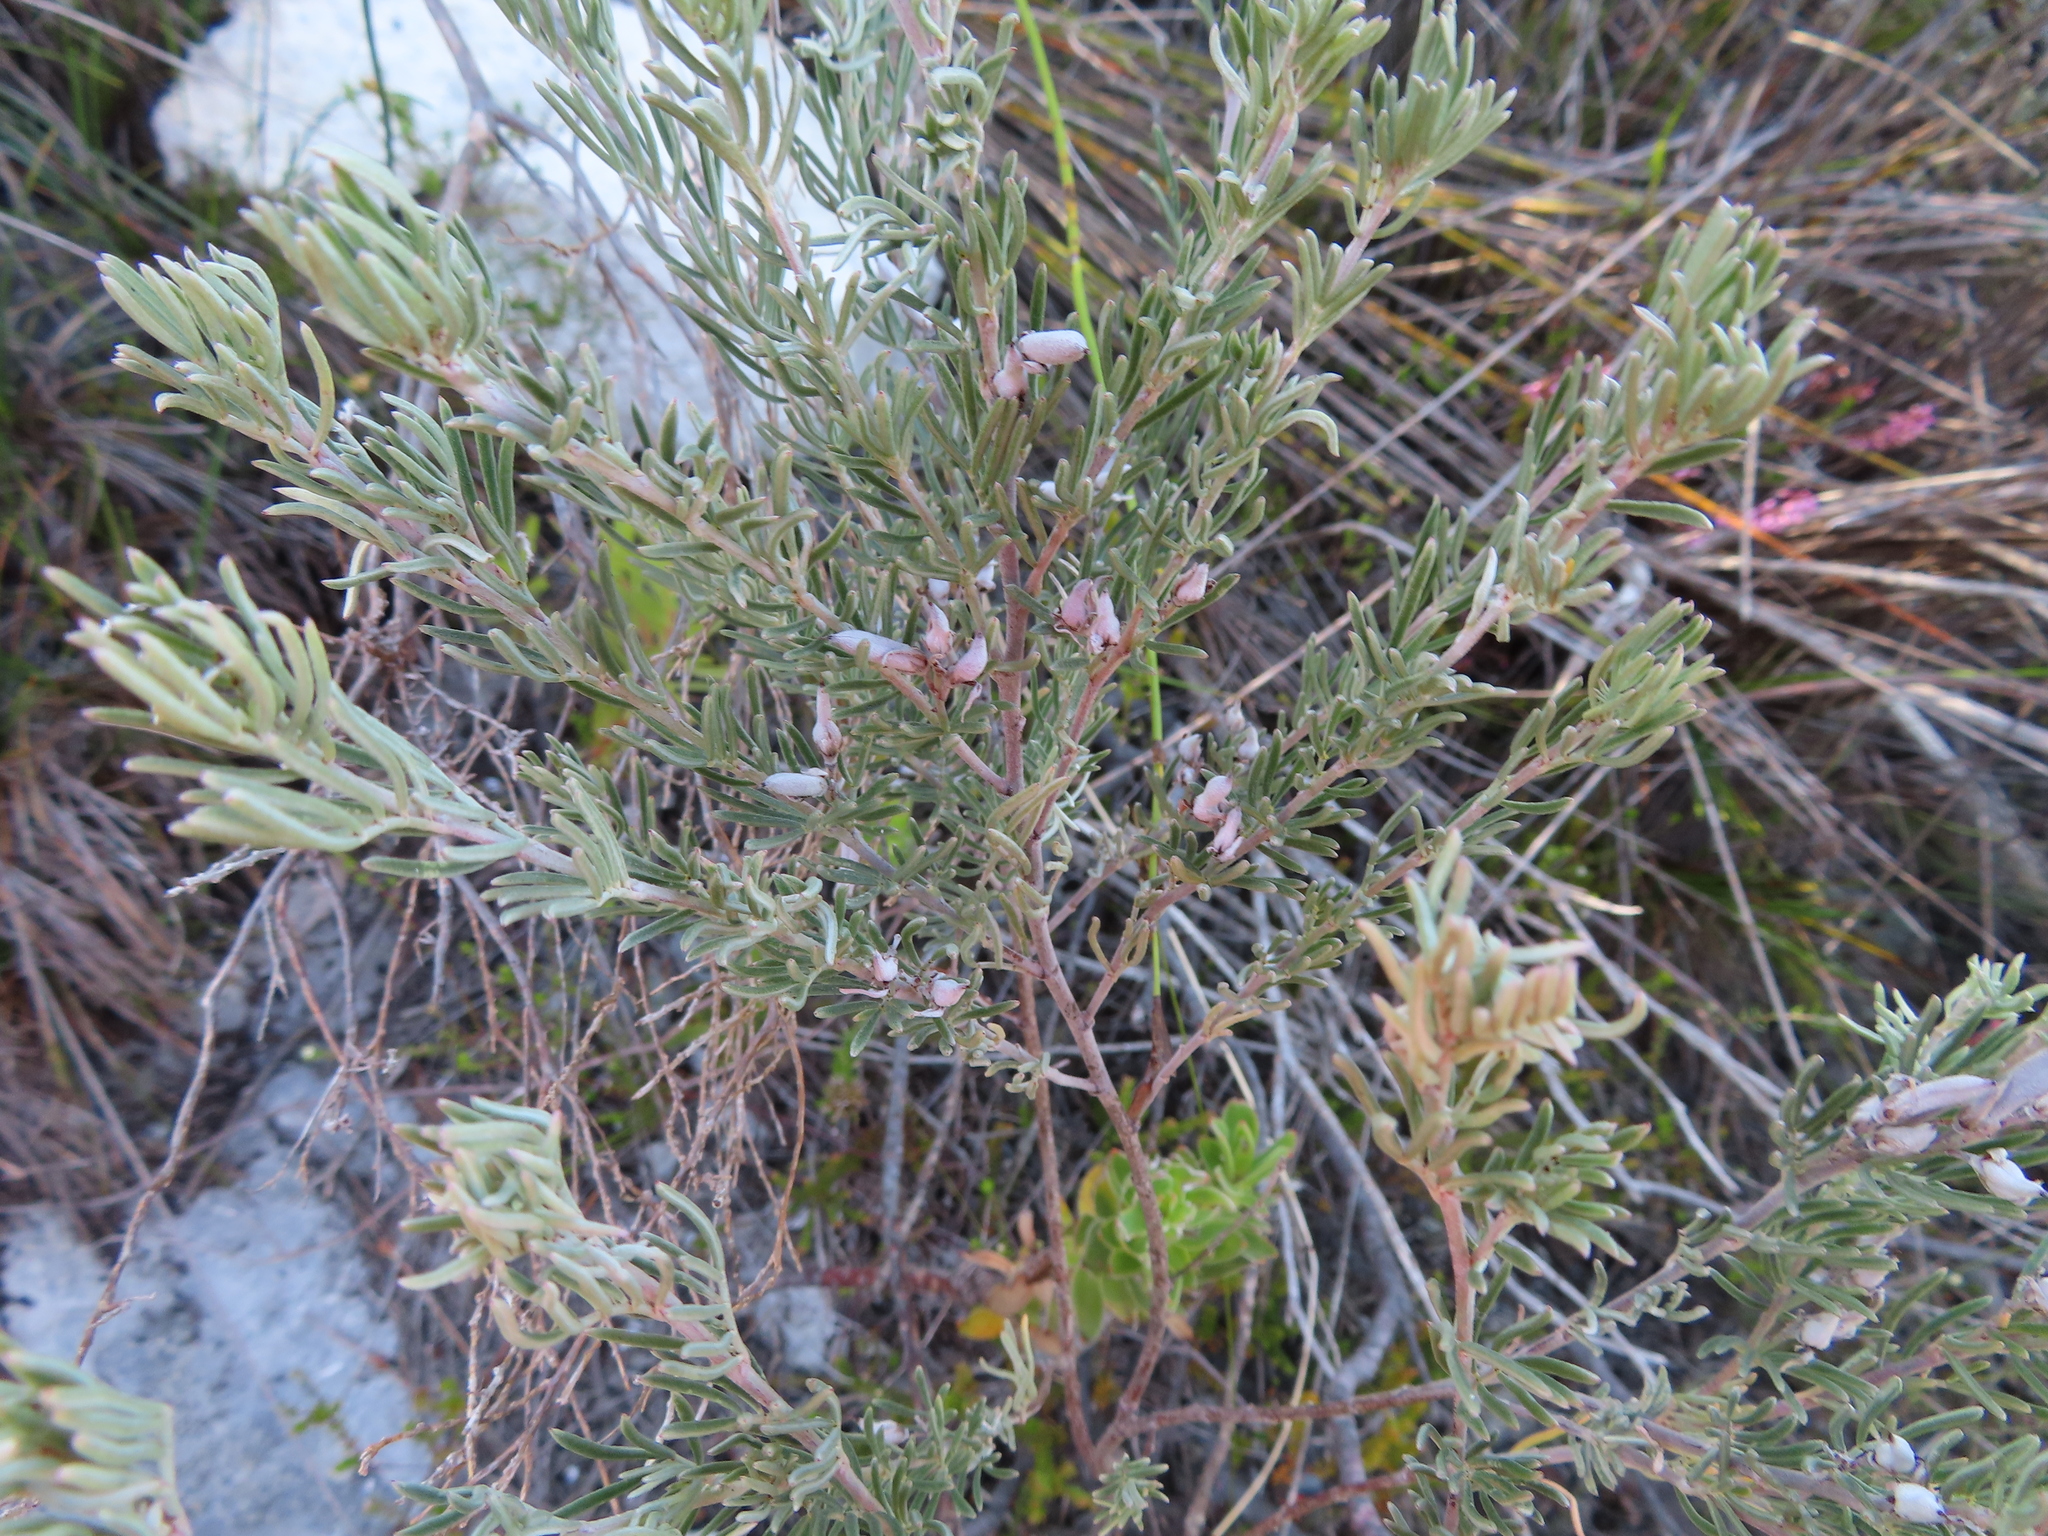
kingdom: Plantae
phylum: Tracheophyta
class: Magnoliopsida
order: Fabales
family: Fabaceae
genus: Indigofera
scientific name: Indigofera
